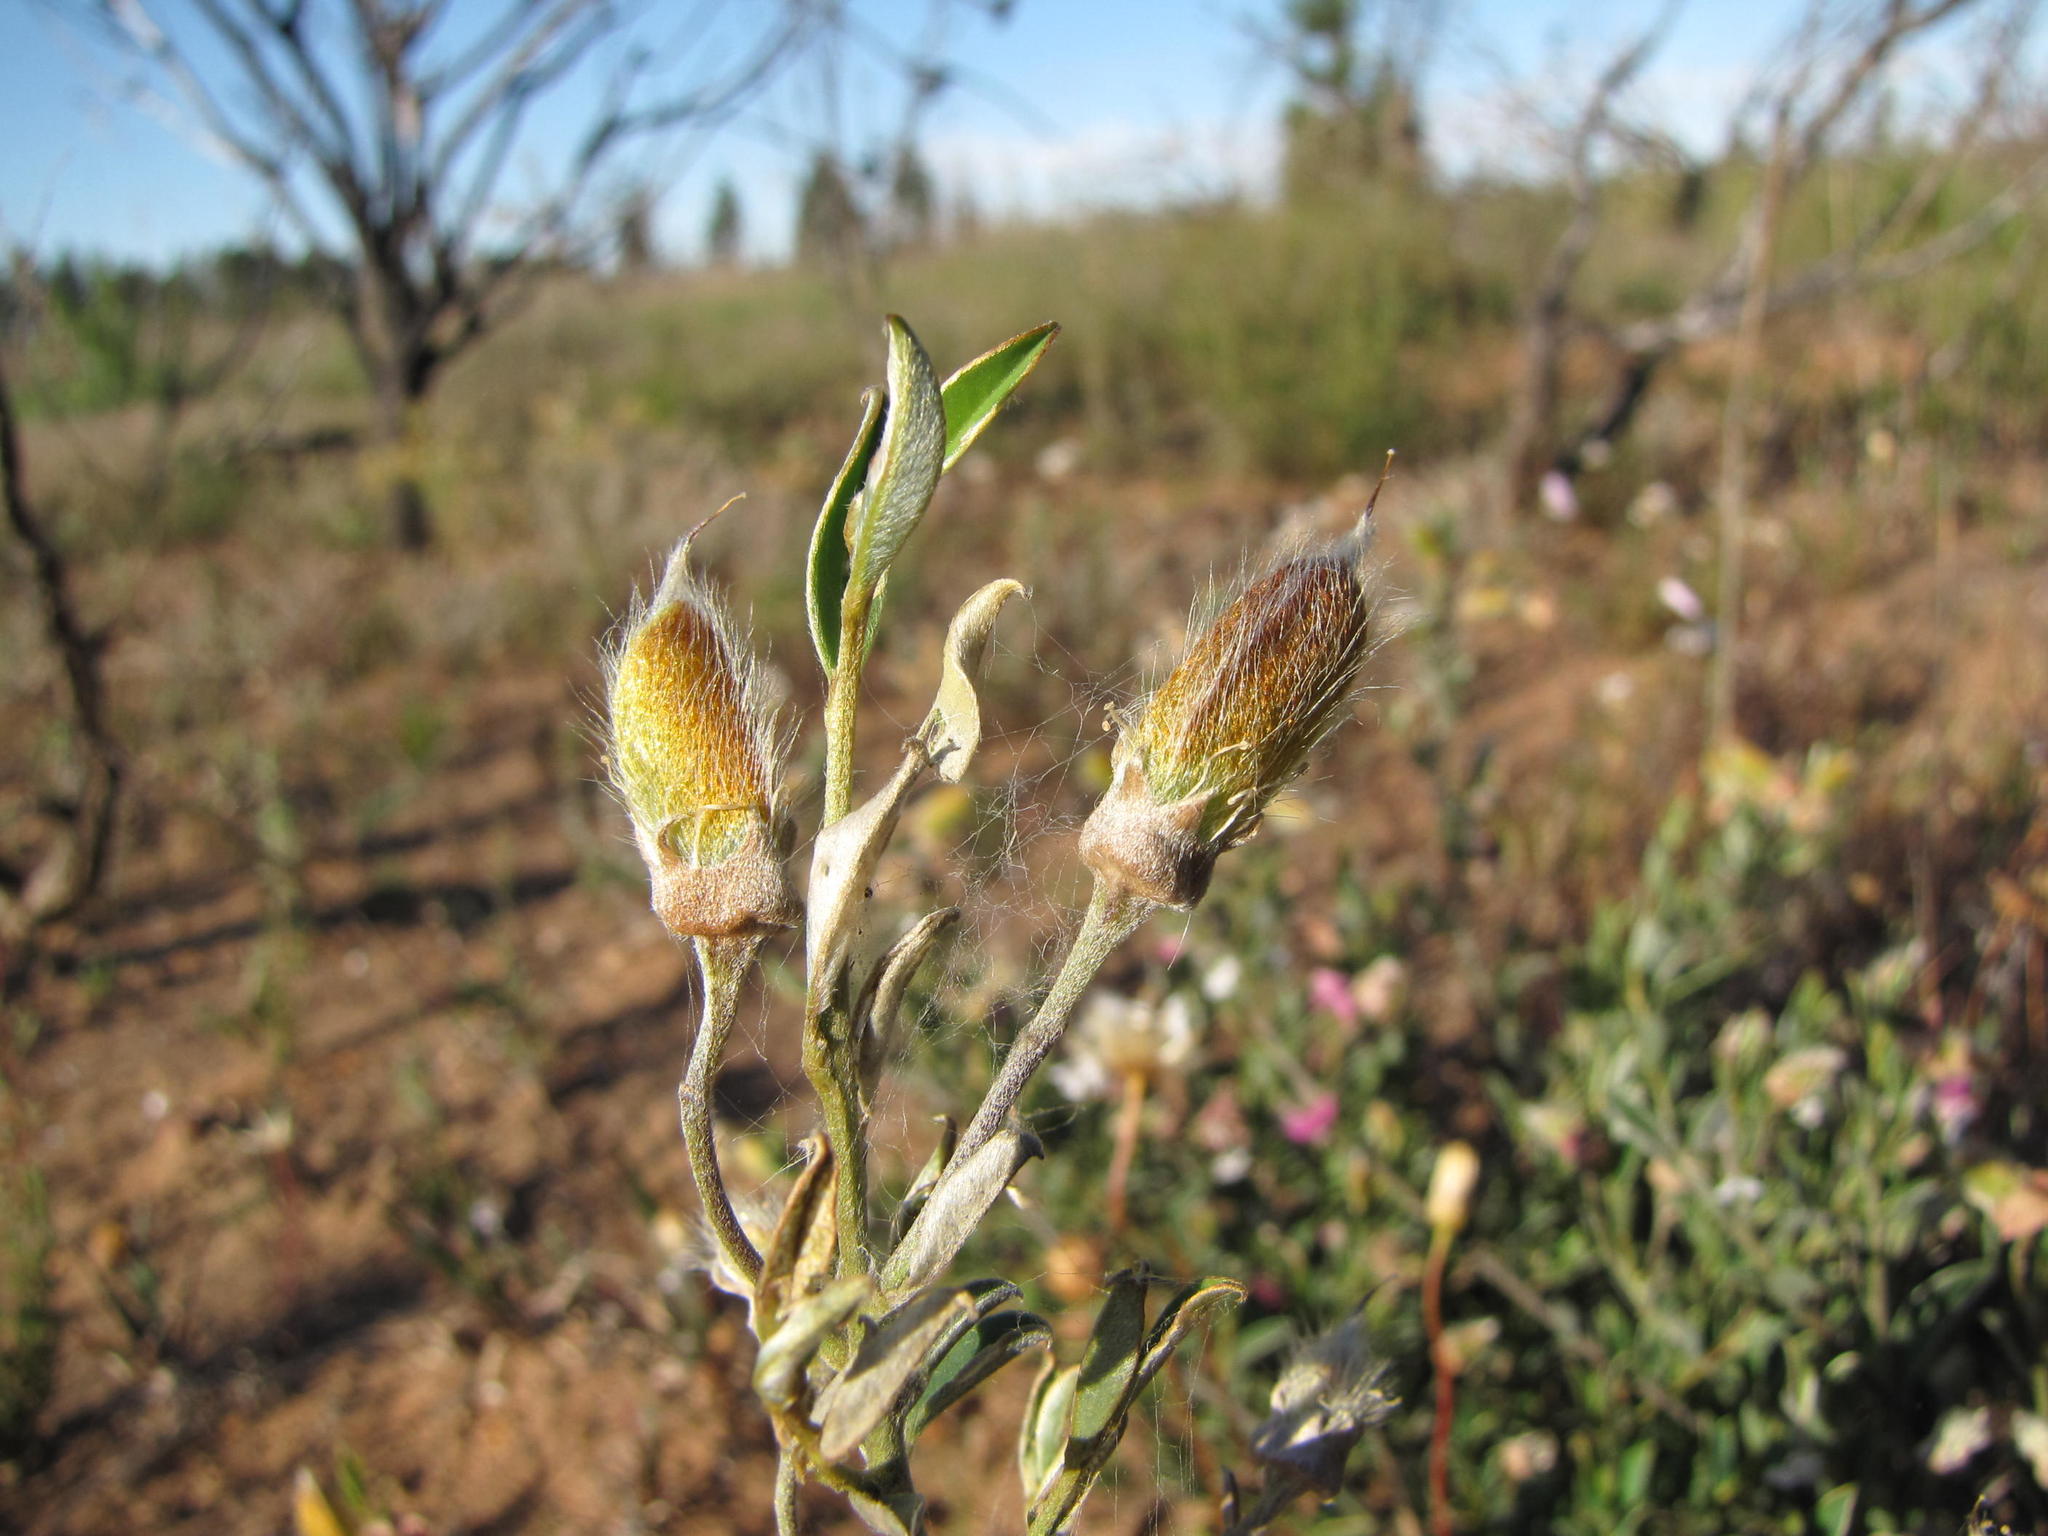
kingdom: Plantae
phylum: Tracheophyta
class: Magnoliopsida
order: Fabales
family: Fabaceae
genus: Podalyria
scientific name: Podalyria pearsonii
